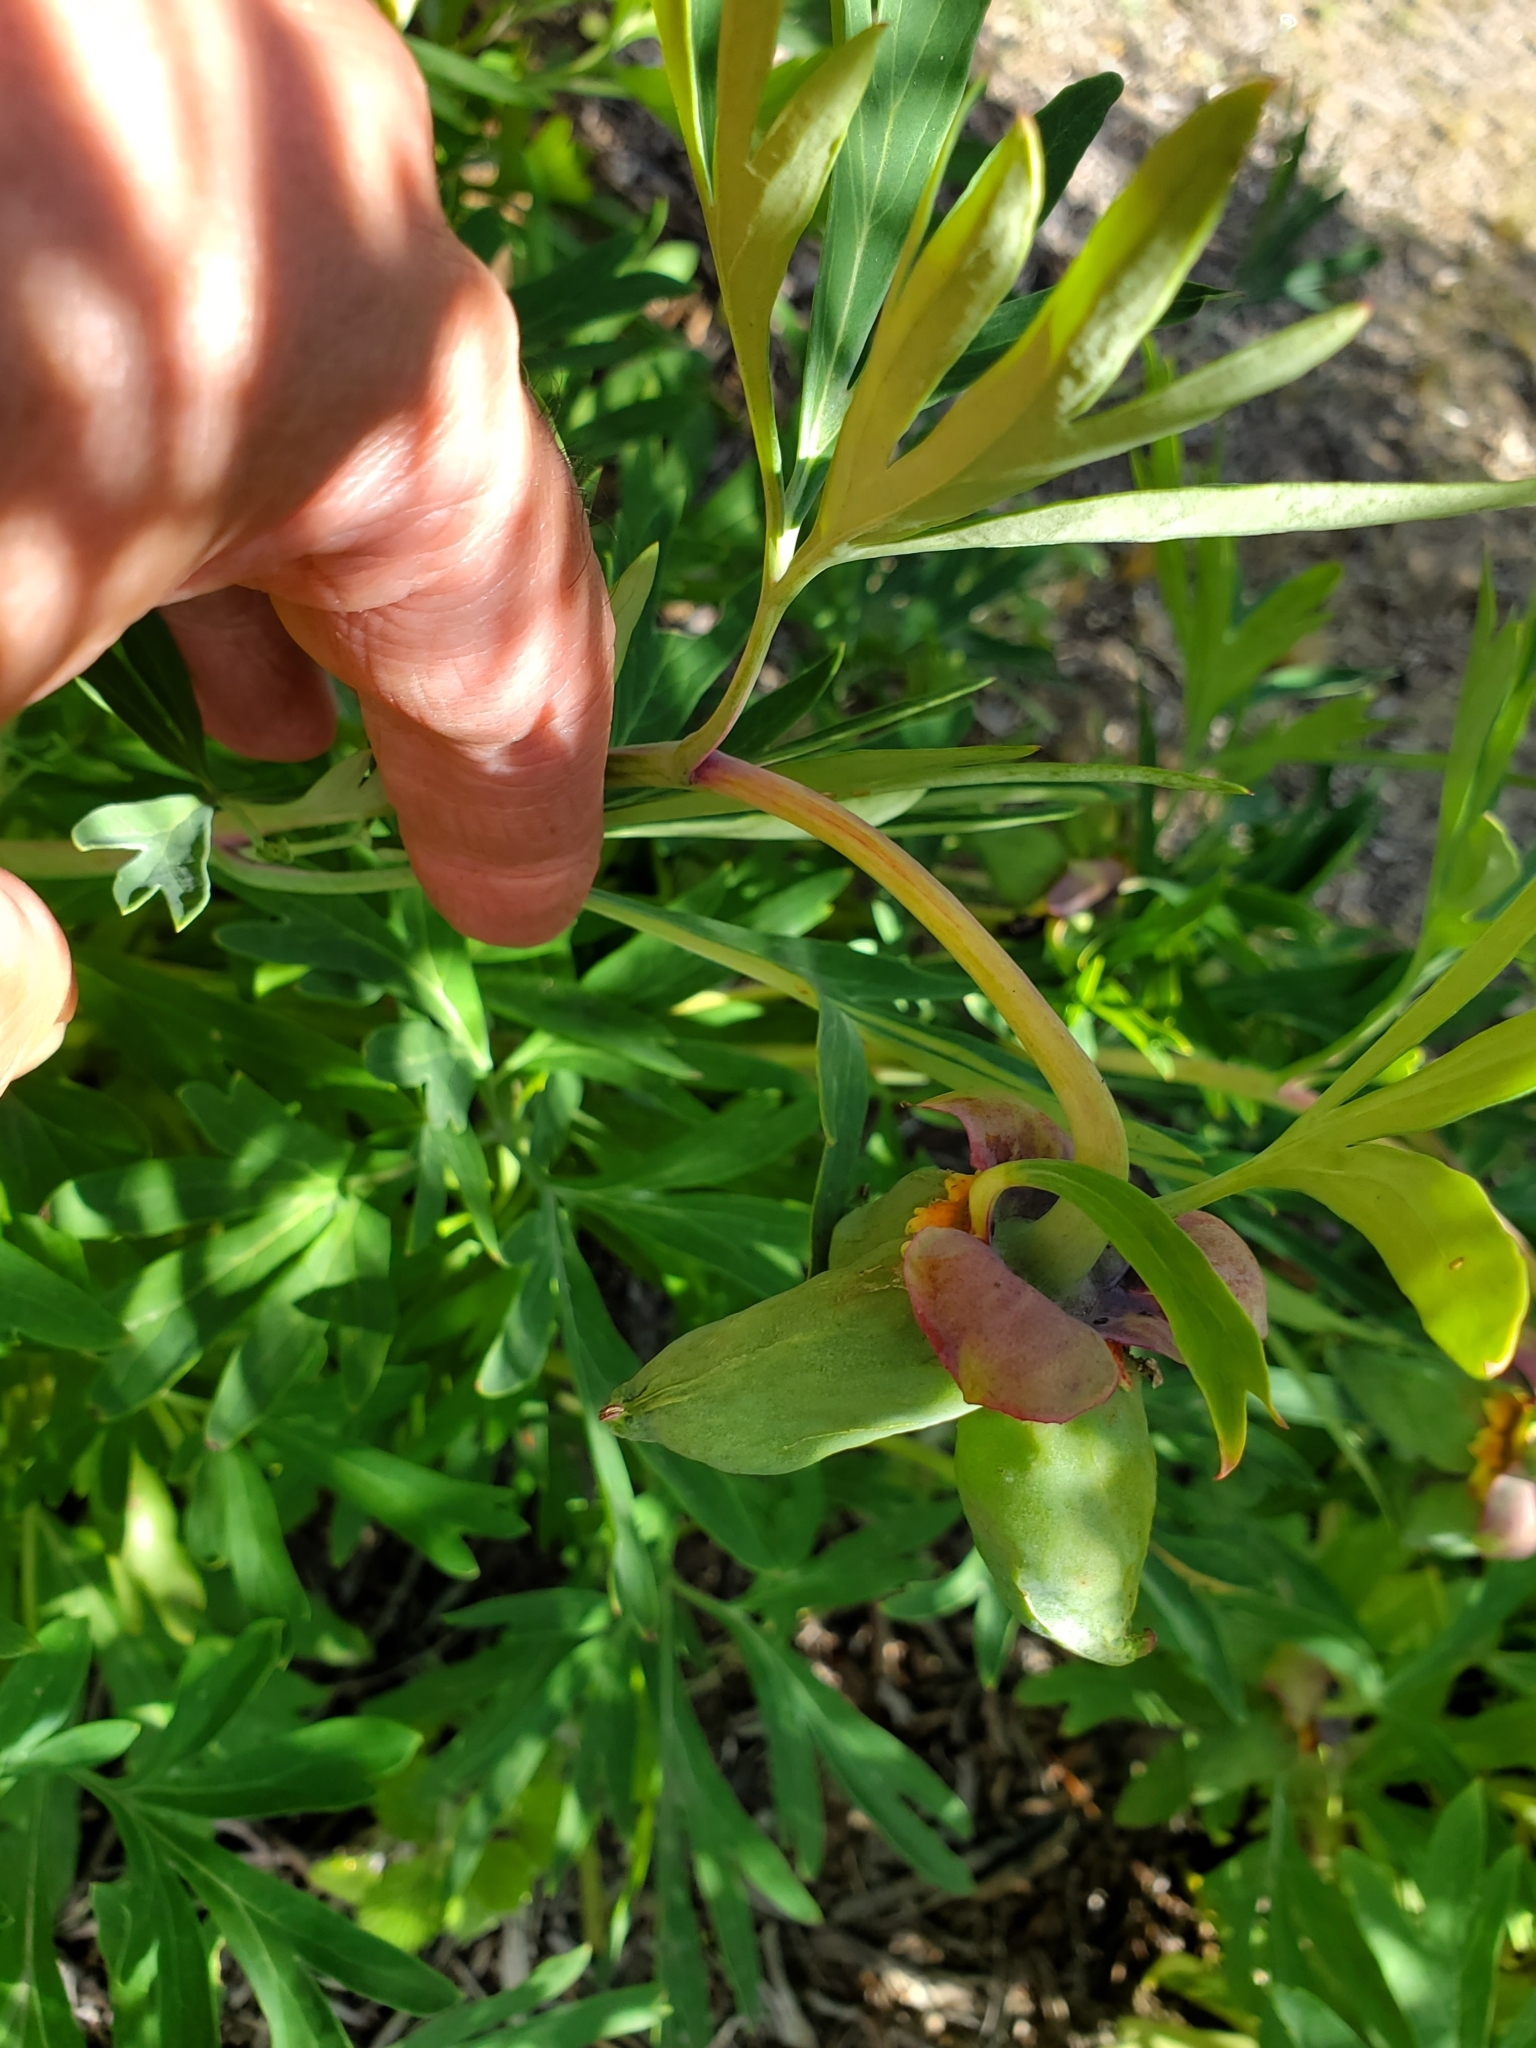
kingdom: Plantae
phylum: Tracheophyta
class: Magnoliopsida
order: Saxifragales
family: Paeoniaceae
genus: Paeonia
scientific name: Paeonia californica
